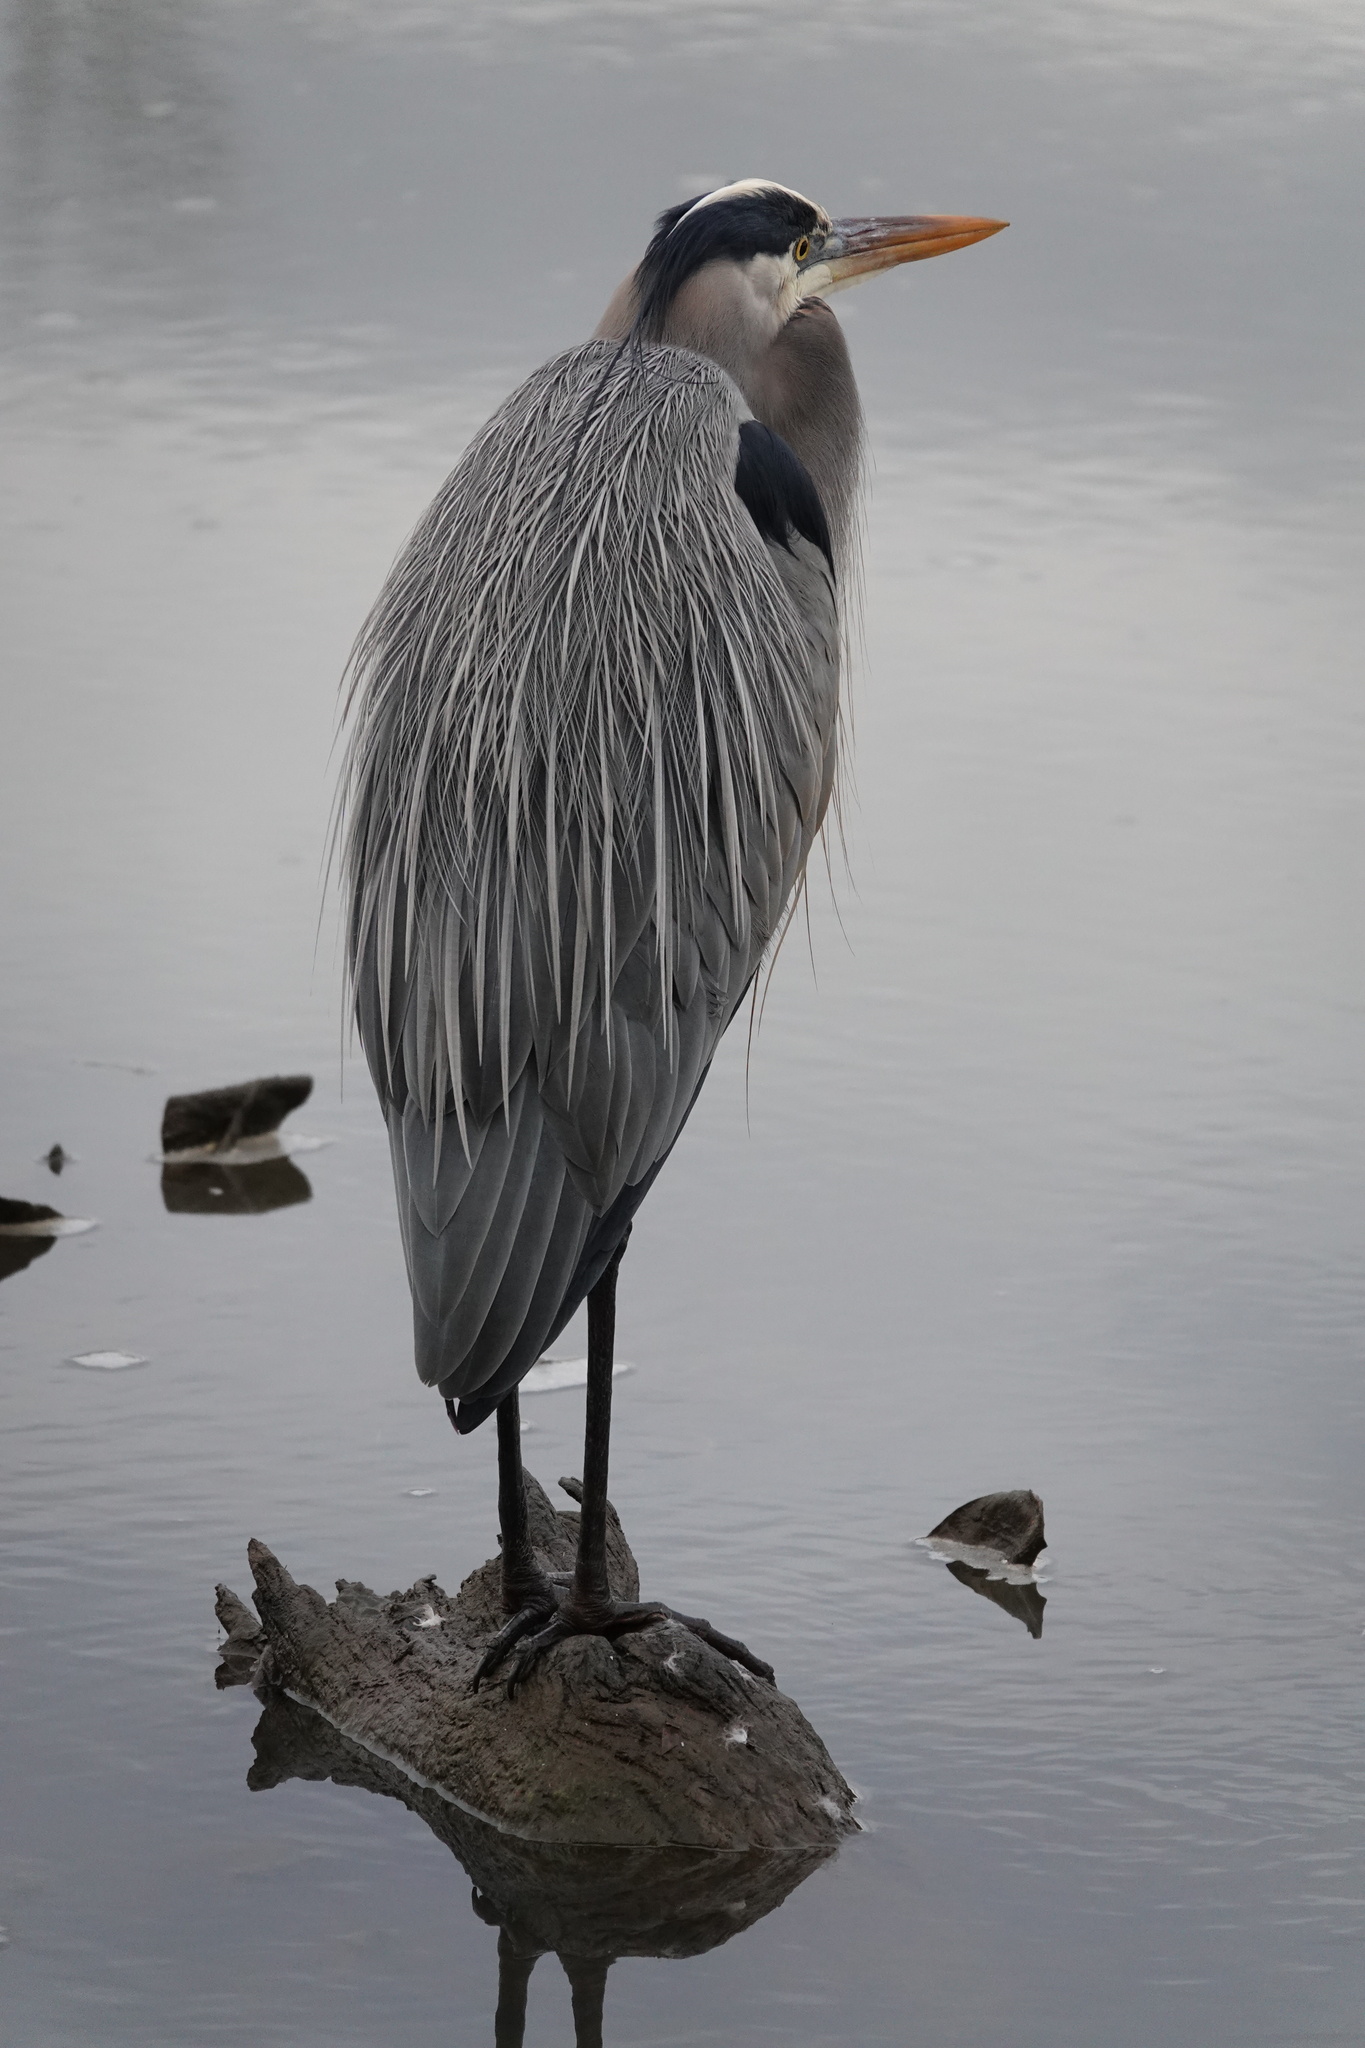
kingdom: Animalia
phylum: Chordata
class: Aves
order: Pelecaniformes
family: Ardeidae
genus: Ardea
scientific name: Ardea herodias
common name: Great blue heron
